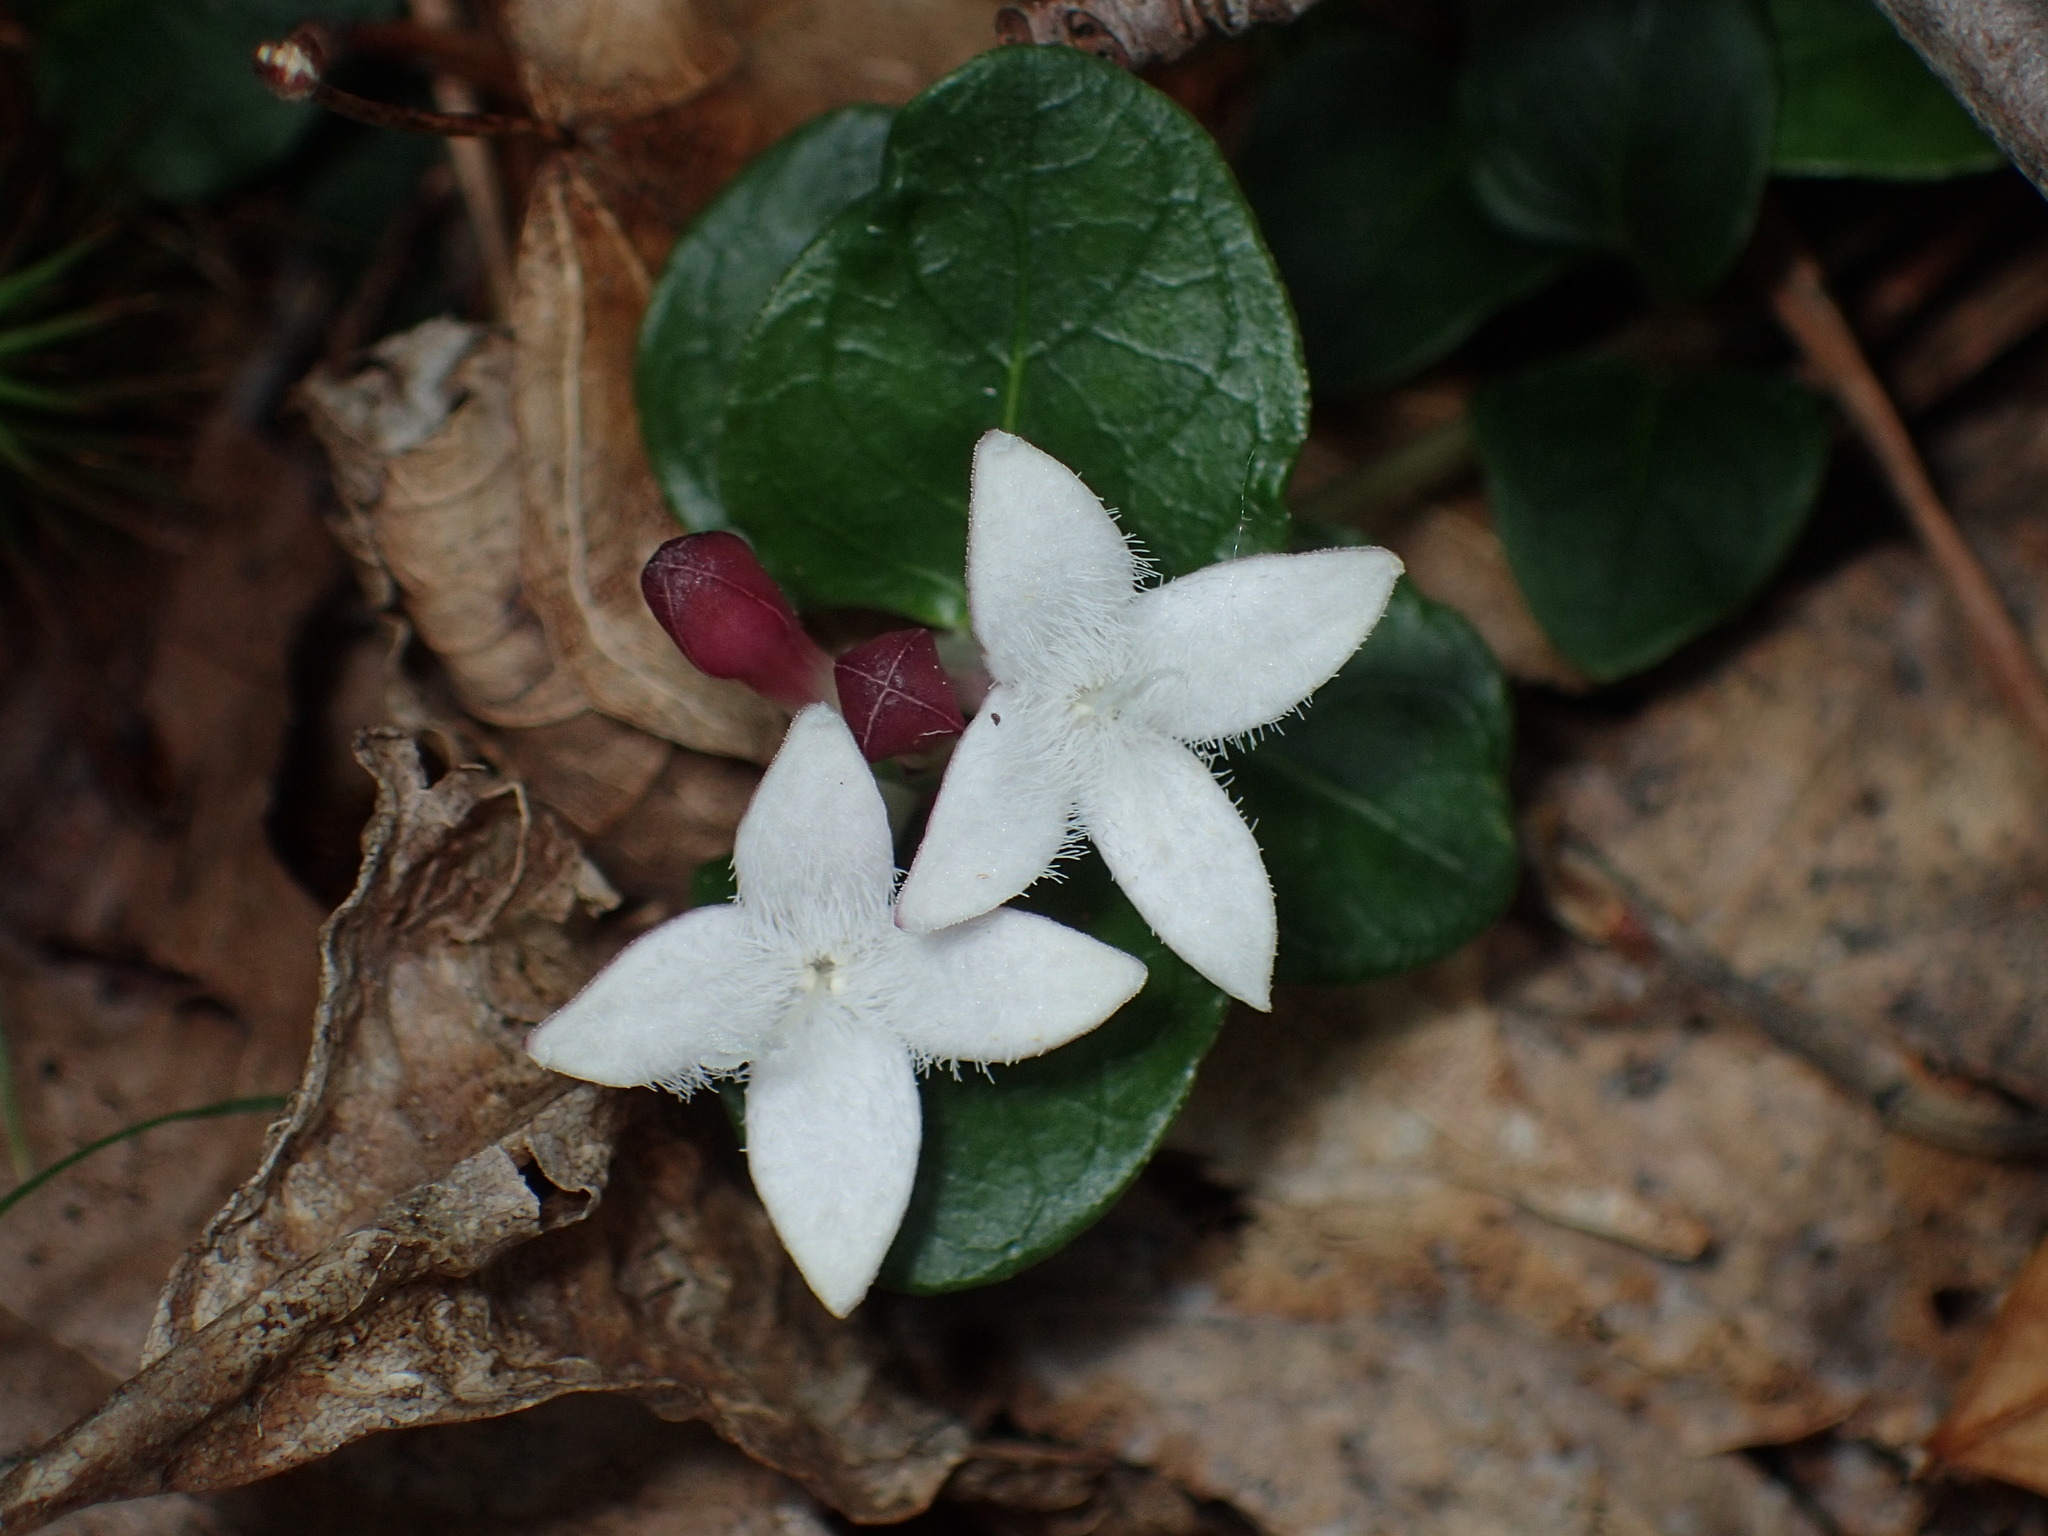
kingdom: Plantae
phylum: Tracheophyta
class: Magnoliopsida
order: Gentianales
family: Rubiaceae
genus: Mitchella
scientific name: Mitchella repens
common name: Partridge-berry
